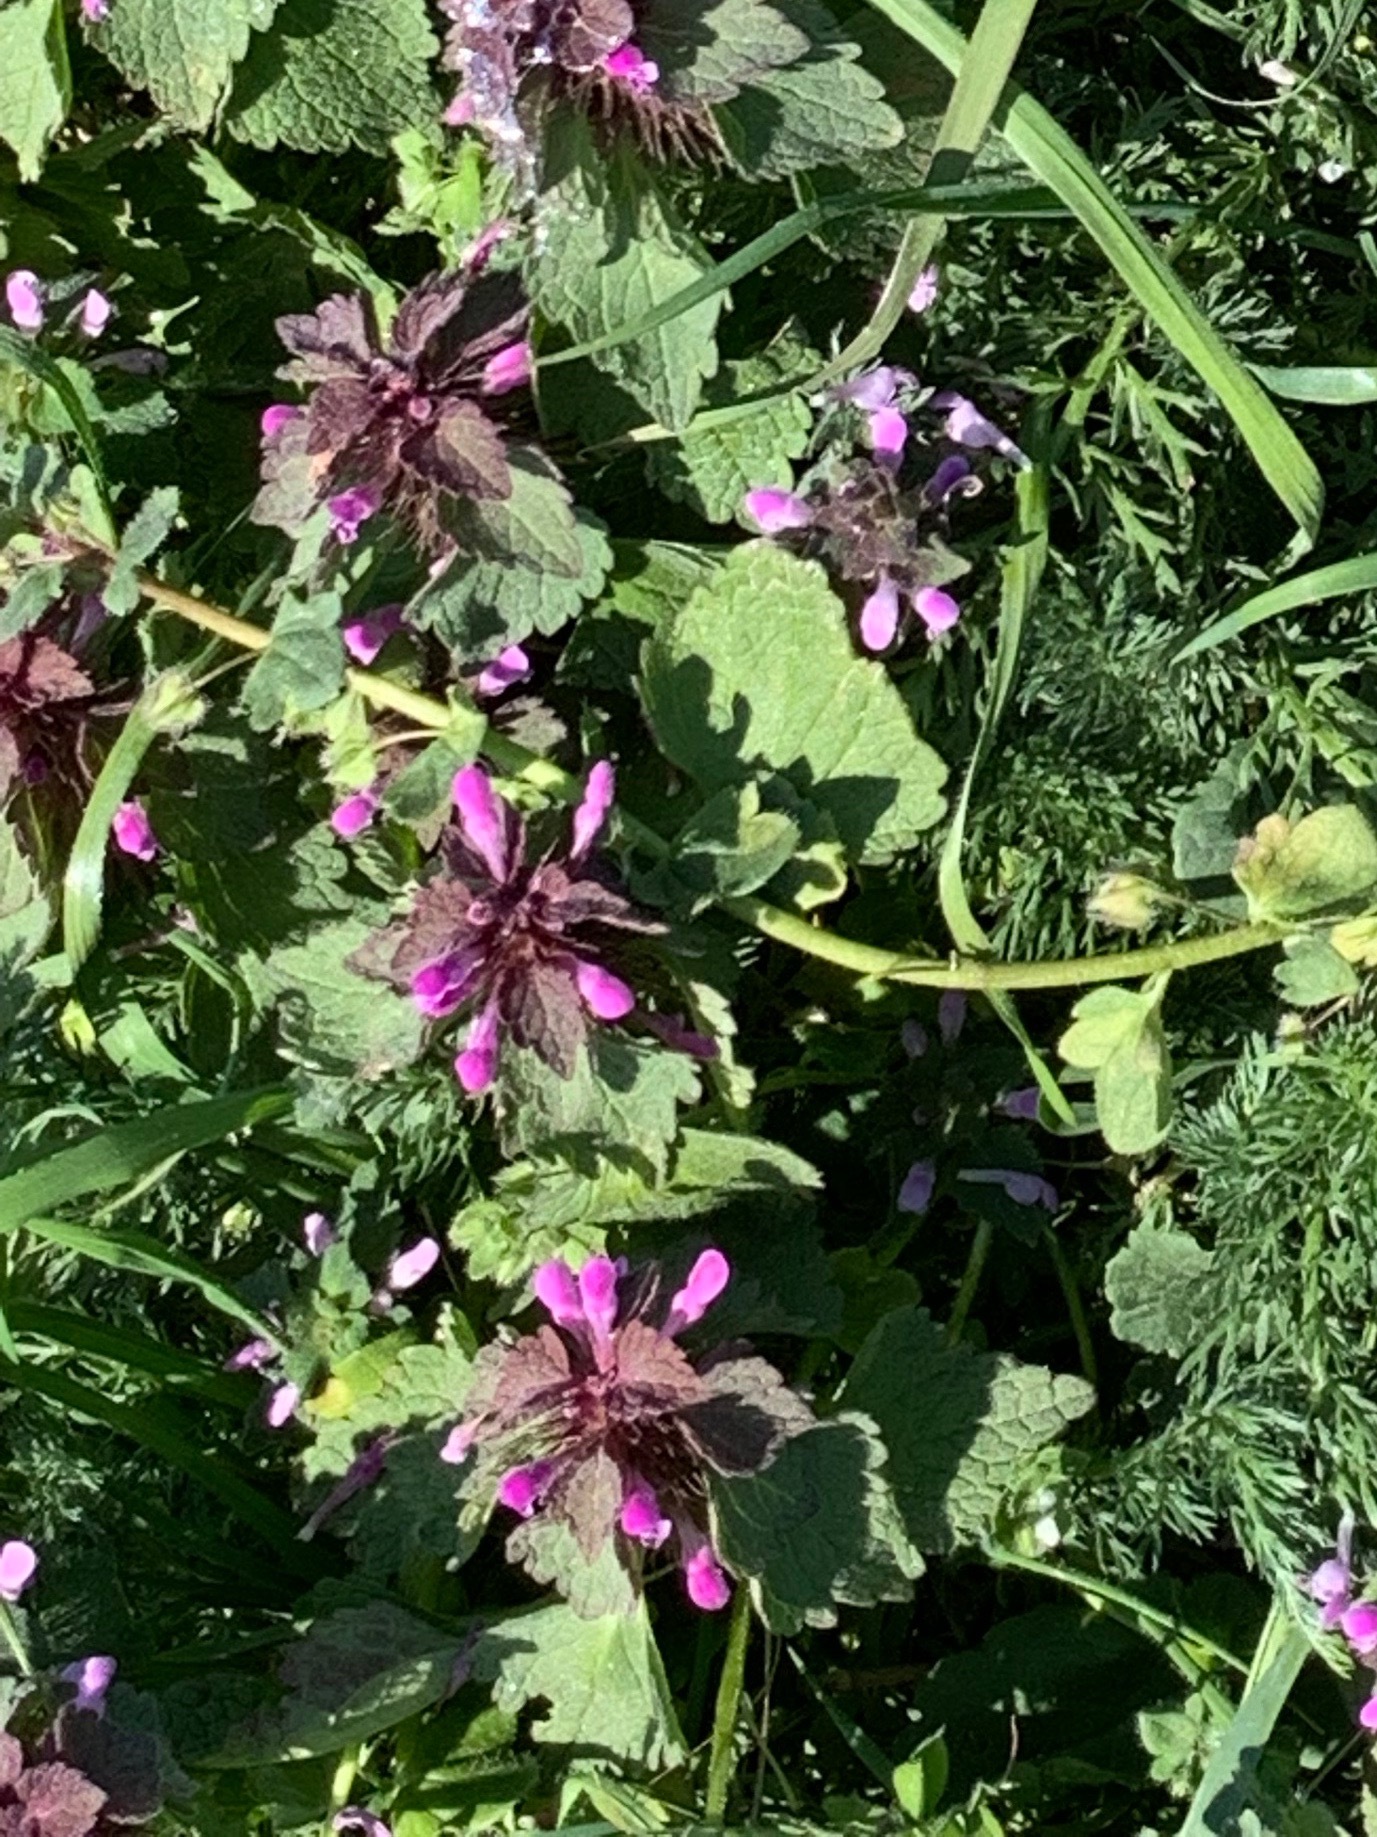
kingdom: Plantae
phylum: Tracheophyta
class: Magnoliopsida
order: Lamiales
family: Lamiaceae
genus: Lamium
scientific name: Lamium purpureum
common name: Red dead-nettle
